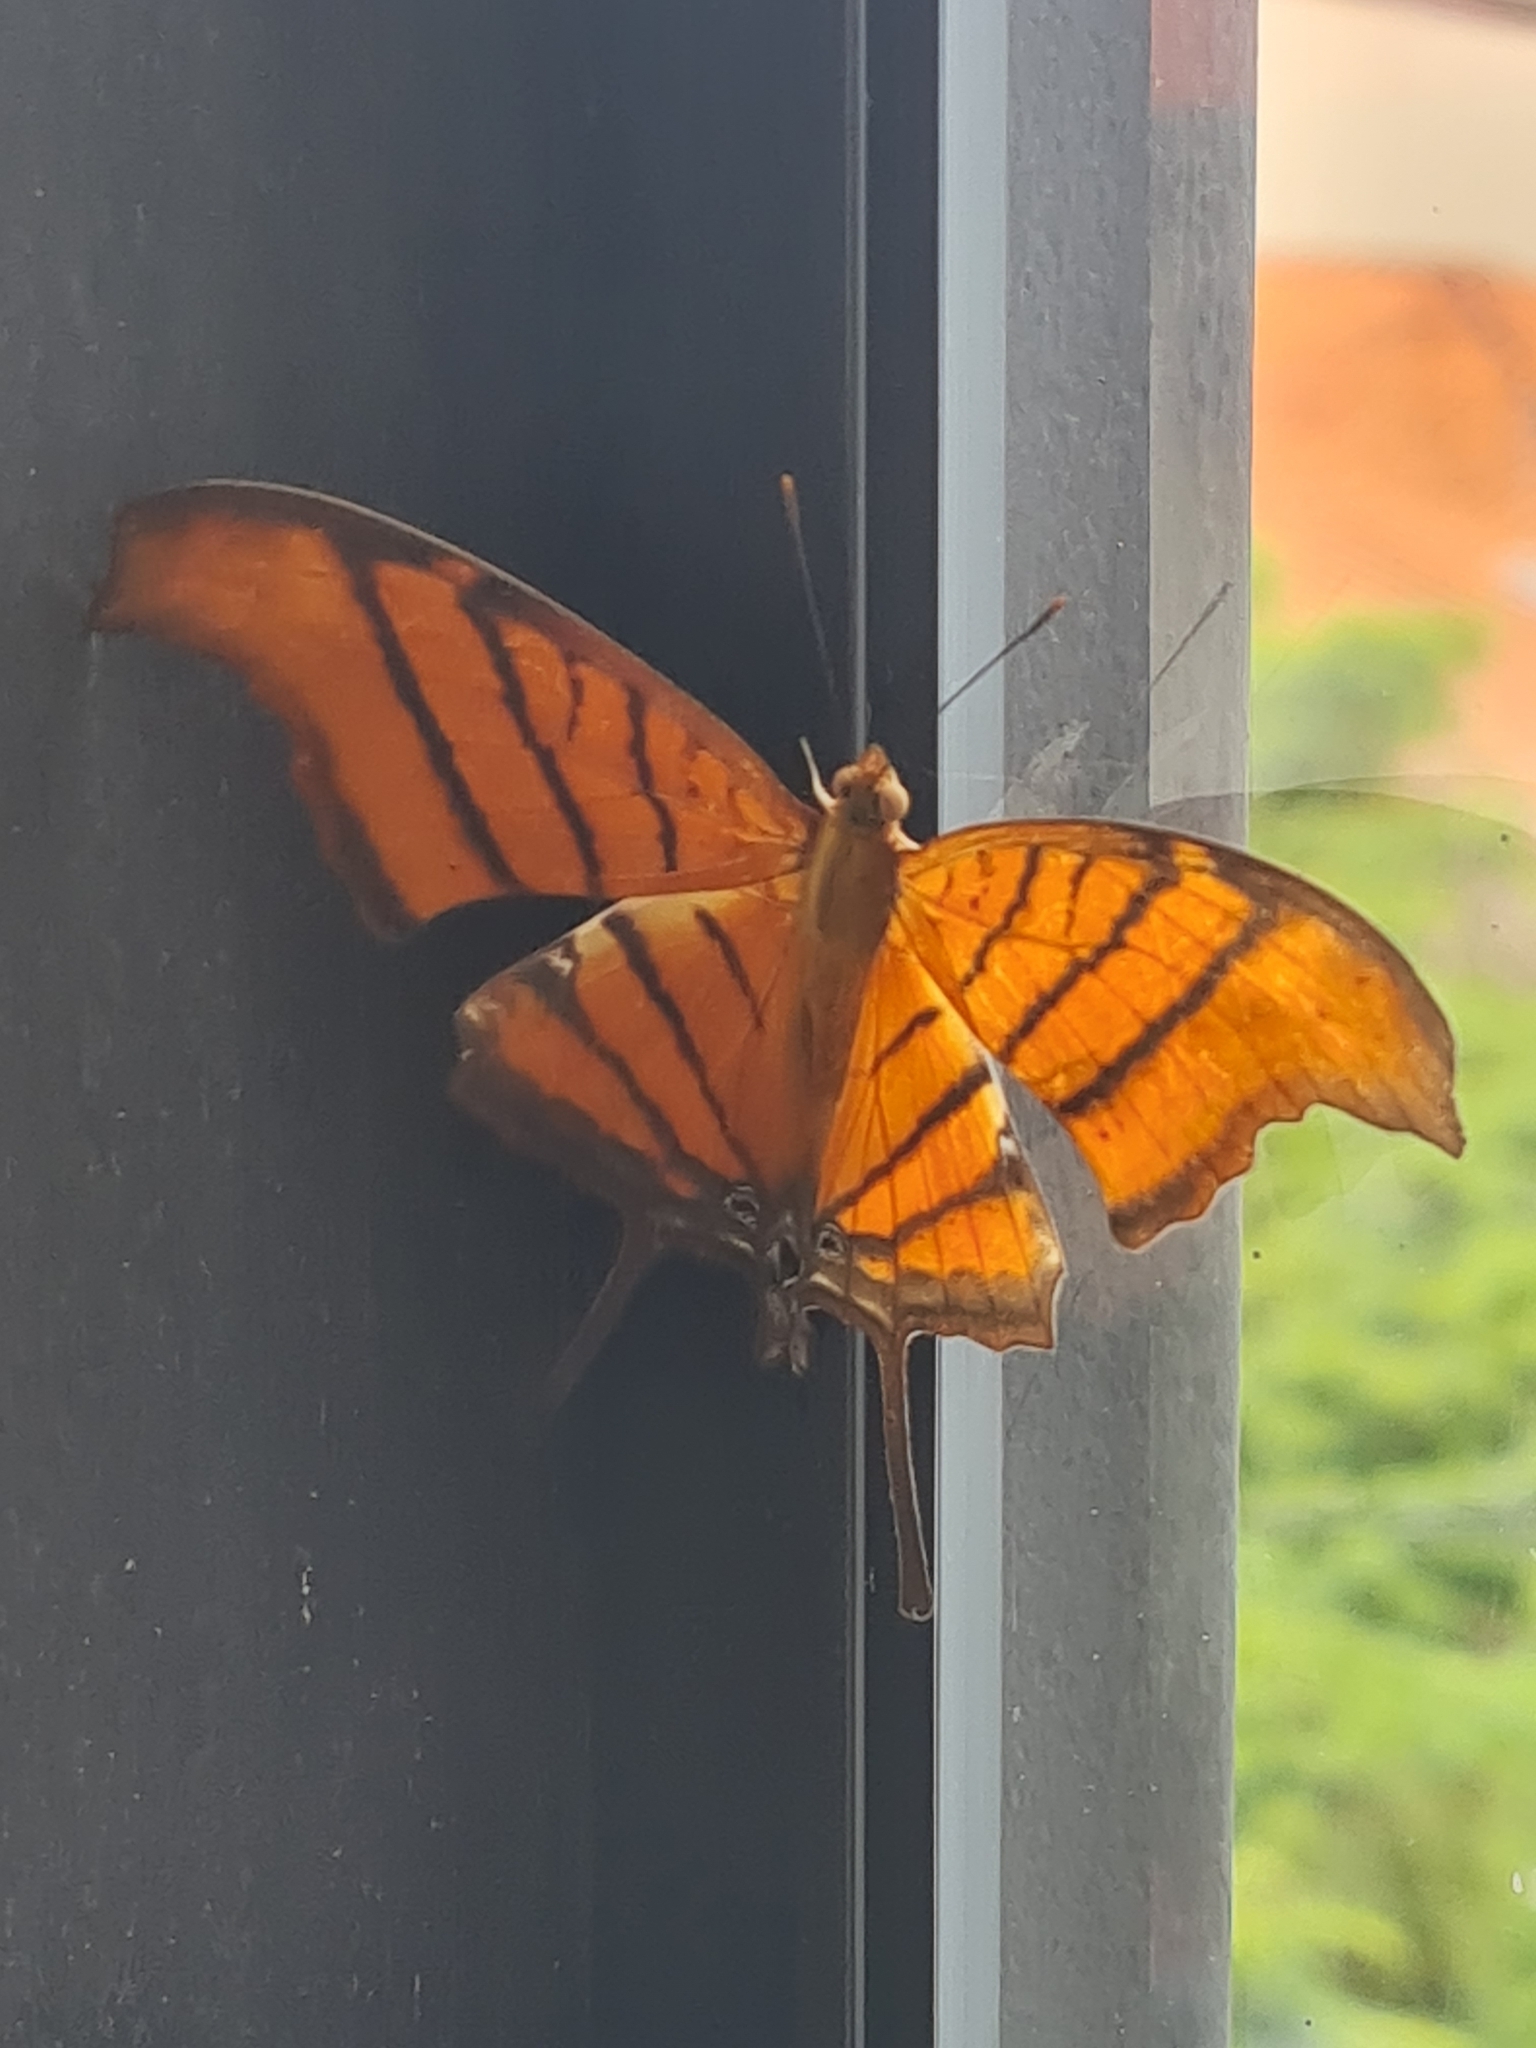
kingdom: Animalia
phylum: Arthropoda
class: Insecta
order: Lepidoptera
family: Nymphalidae
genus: Marpesia
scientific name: Marpesia petreus
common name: Red dagger wing
